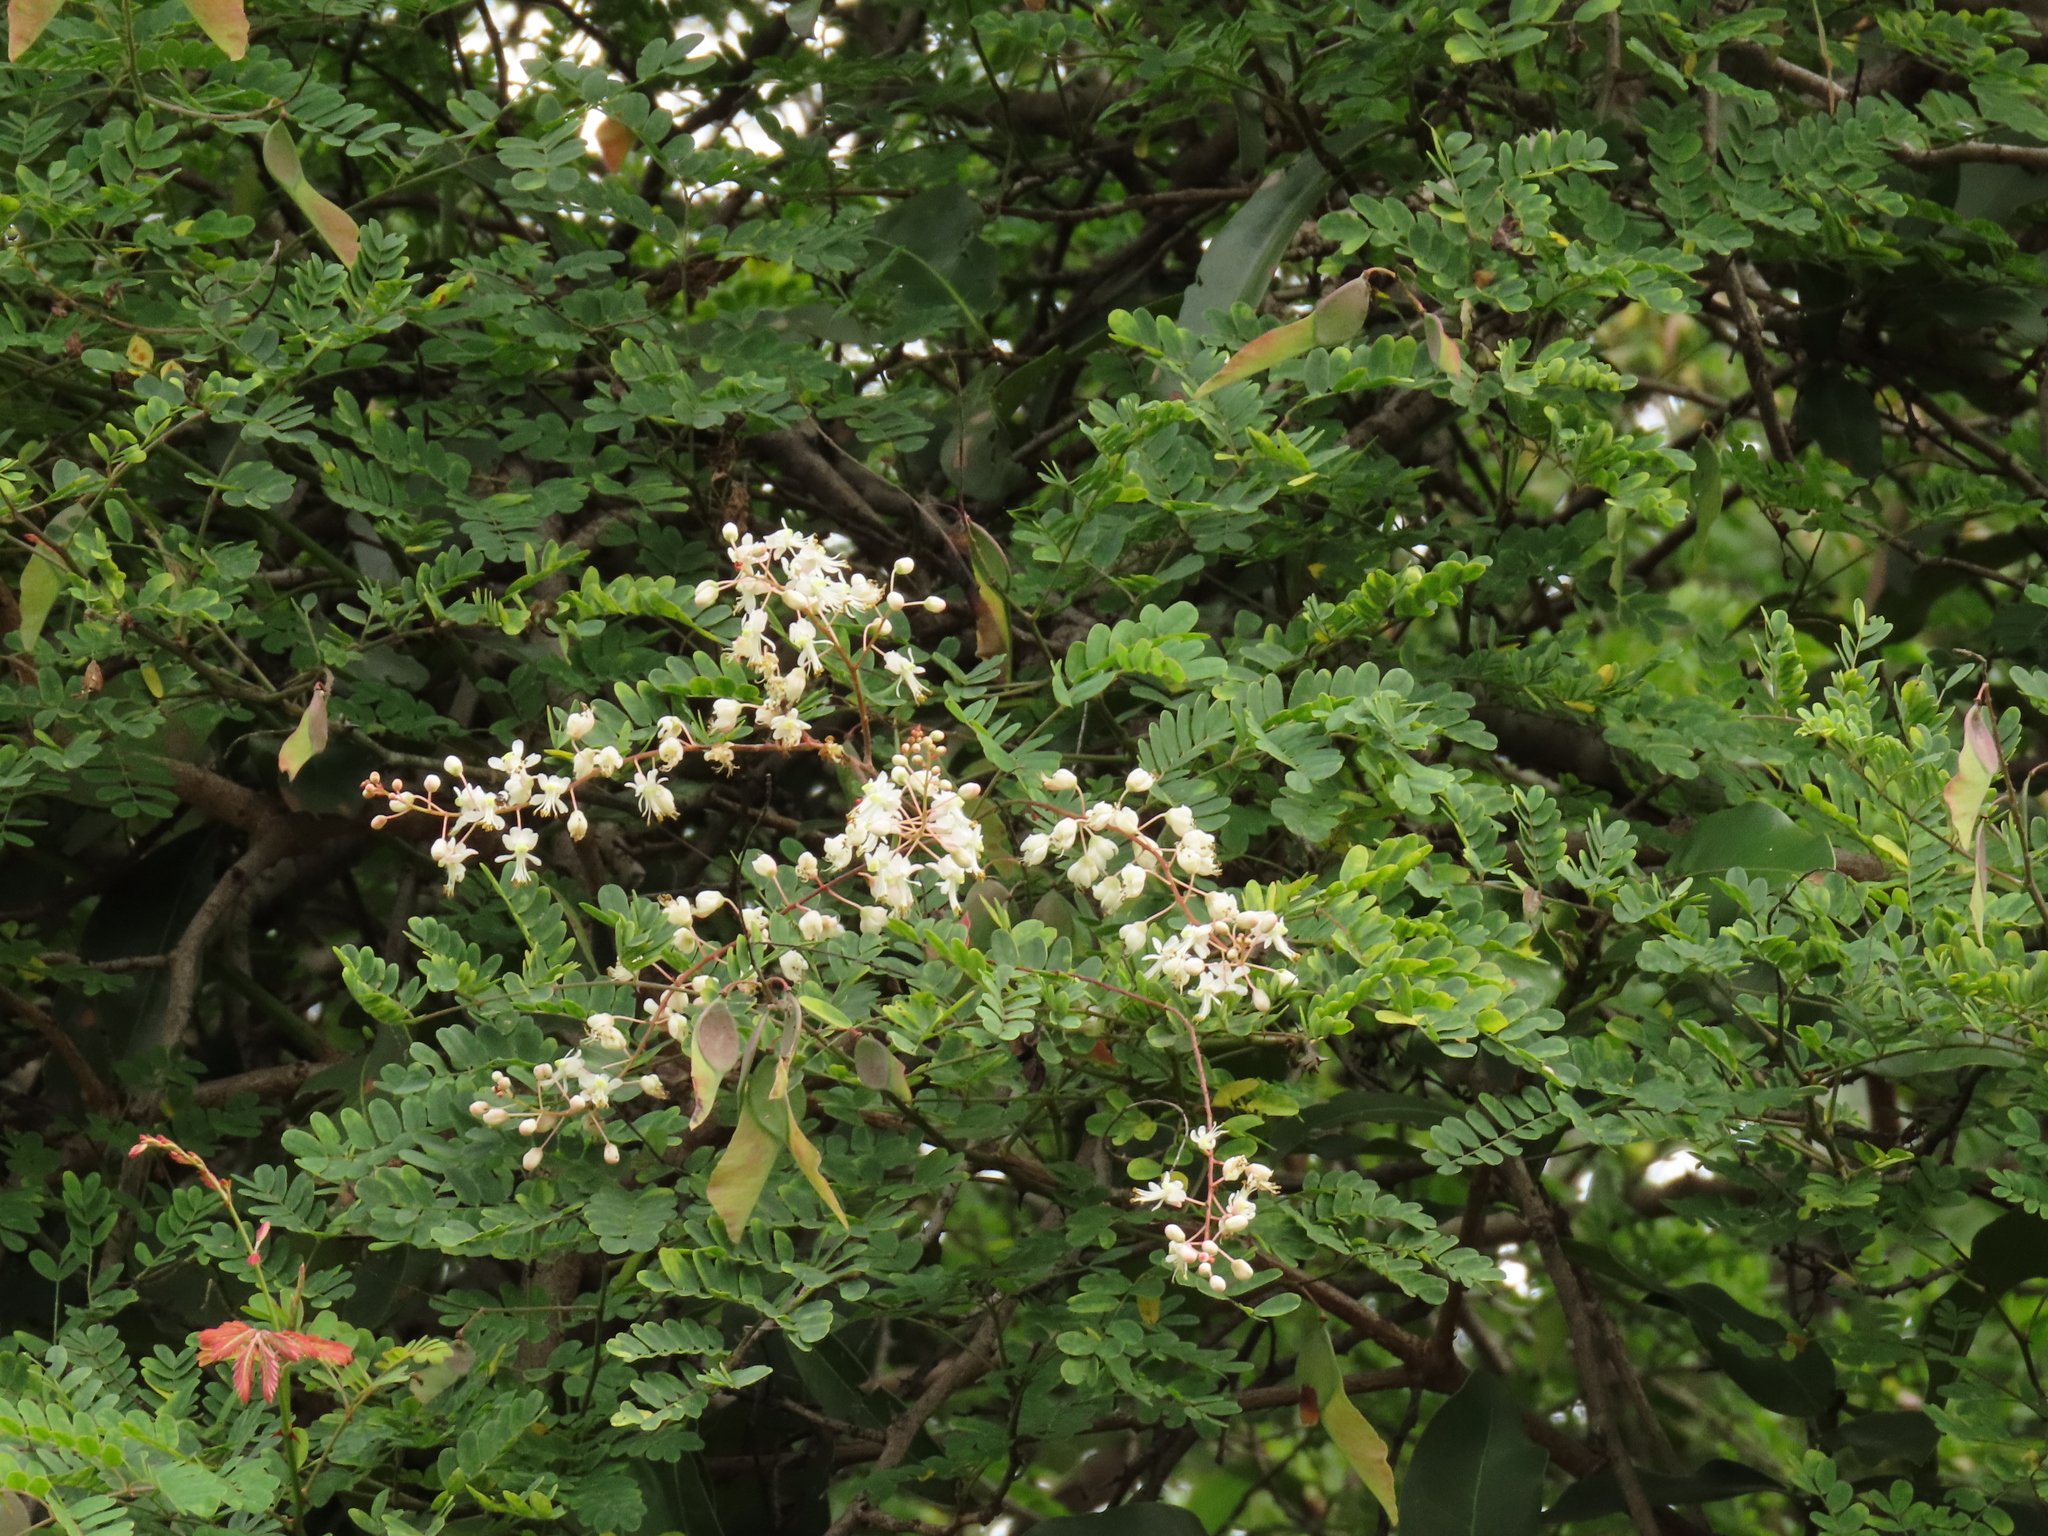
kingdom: Plantae
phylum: Tracheophyta
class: Magnoliopsida
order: Fabales
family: Fabaceae
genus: Pterolobium
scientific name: Pterolobium hexapetalum
